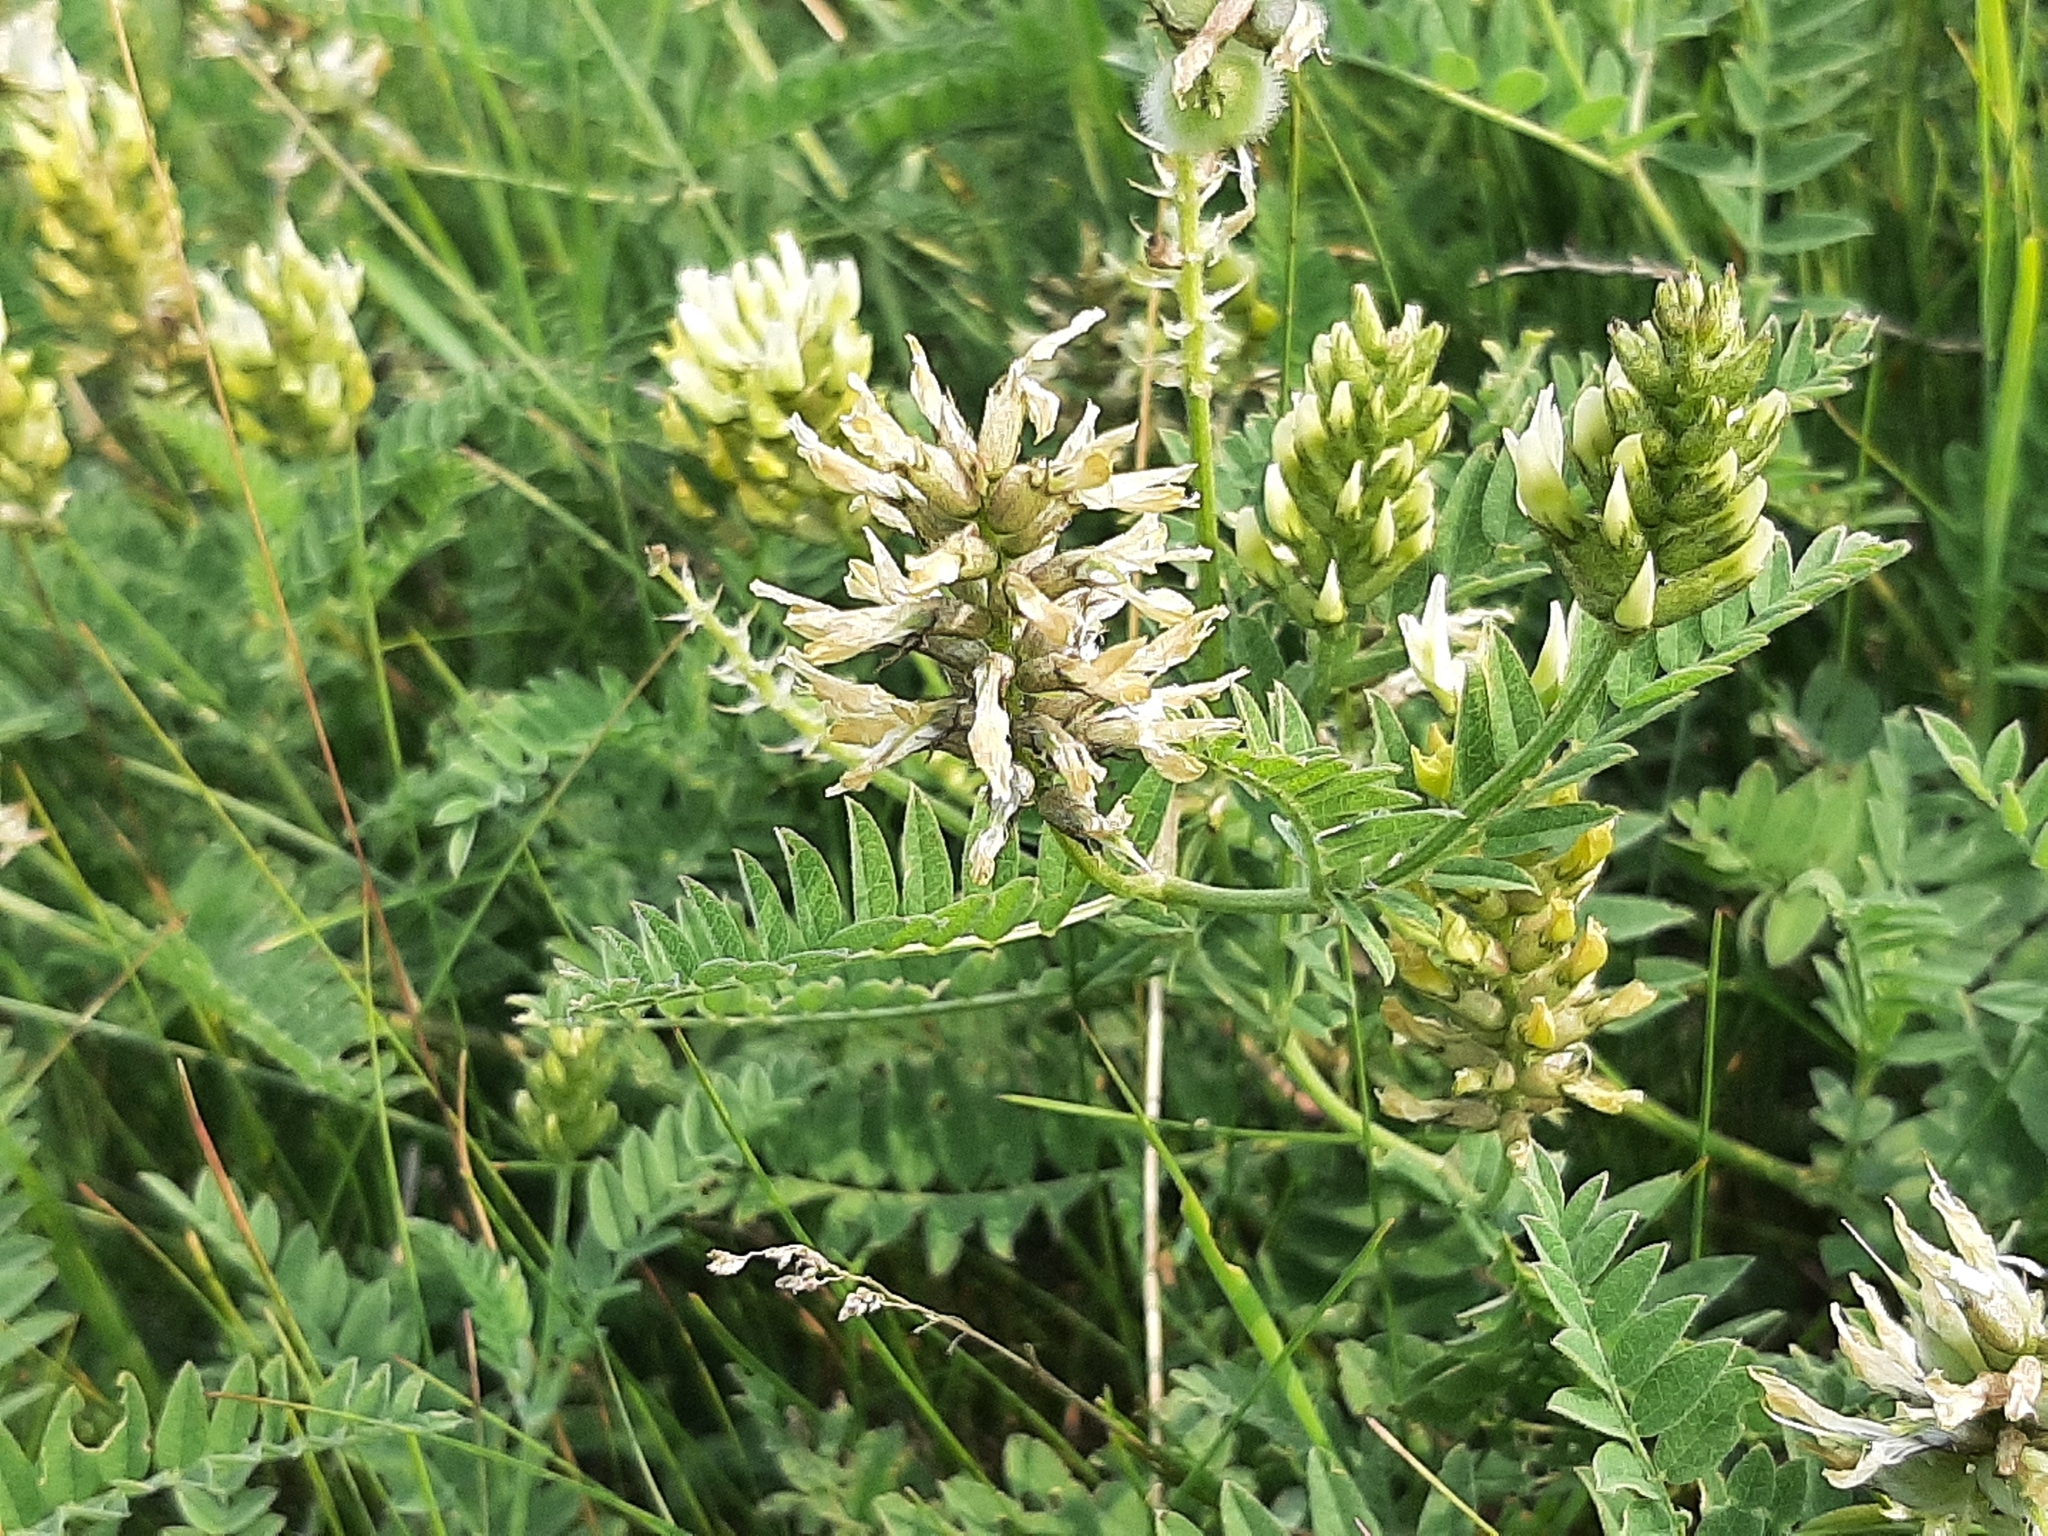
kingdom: Plantae
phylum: Tracheophyta
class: Magnoliopsida
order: Fabales
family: Fabaceae
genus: Astragalus
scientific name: Astragalus cicer
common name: Chick-pea milk-vetch
